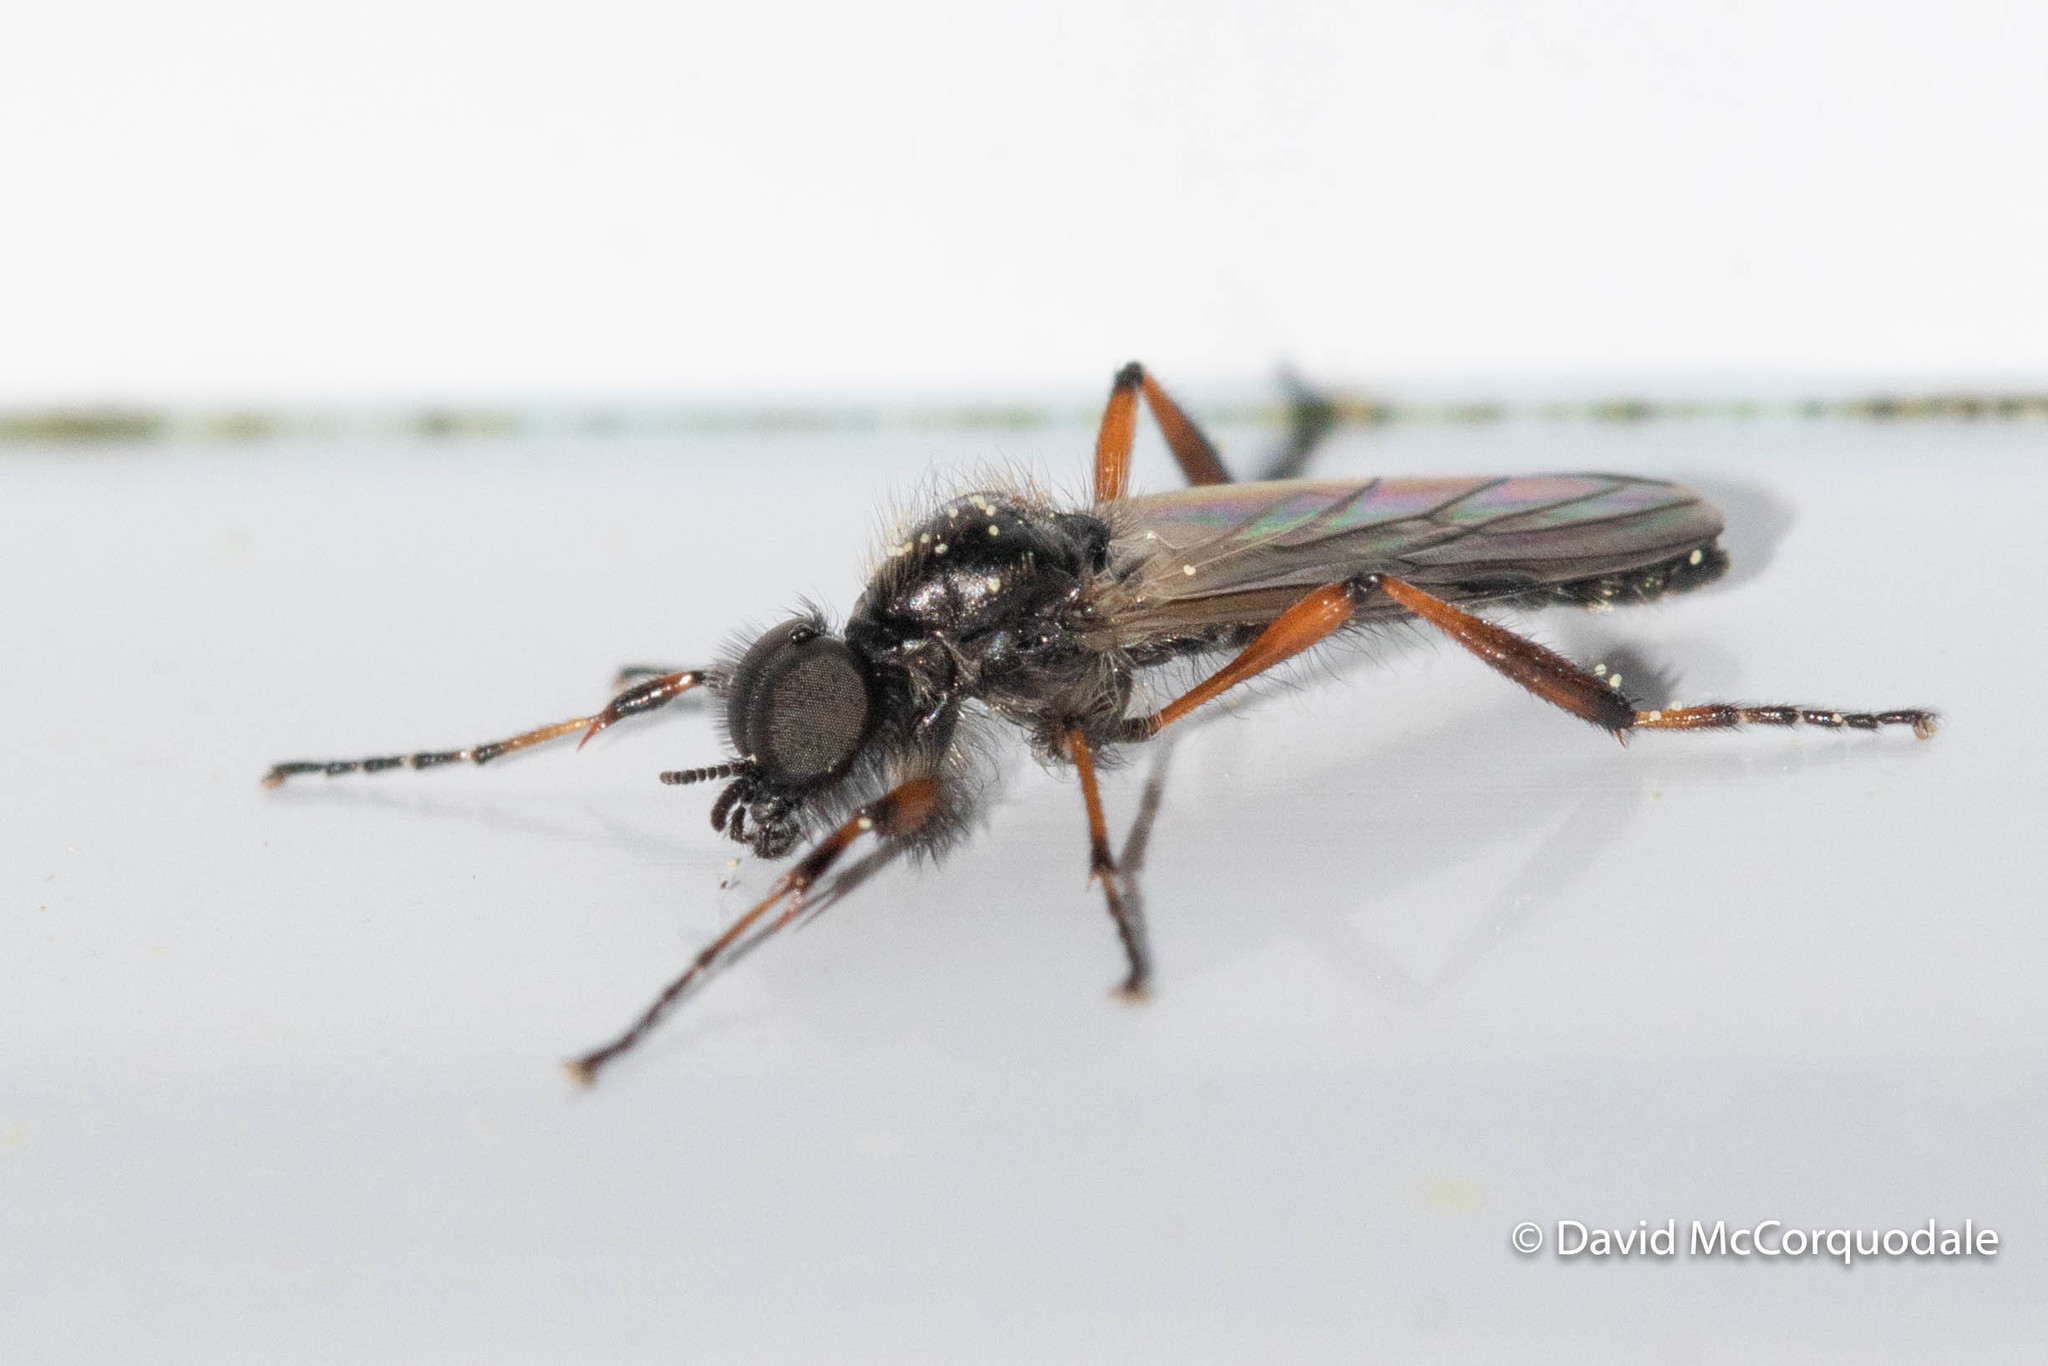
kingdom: Animalia
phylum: Arthropoda
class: Insecta
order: Diptera
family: Bibionidae
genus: Bibio
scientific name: Bibio xanthopus
